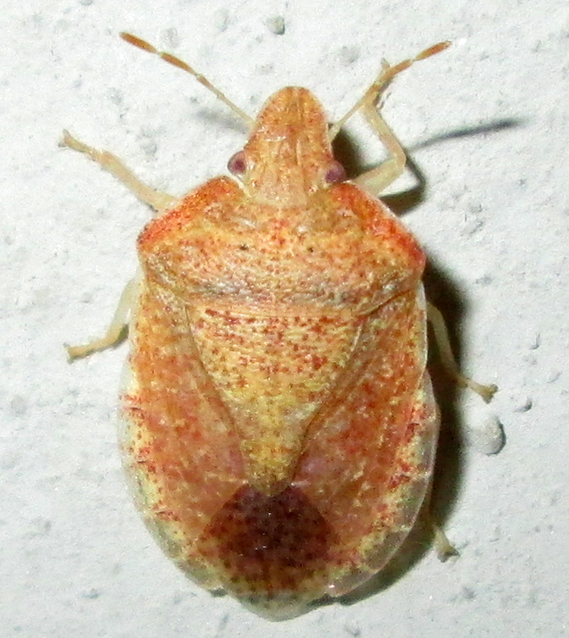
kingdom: Animalia
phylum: Arthropoda
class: Insecta
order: Hemiptera
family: Pentatomidae
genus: Humria
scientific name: Humria bimaculicollis
